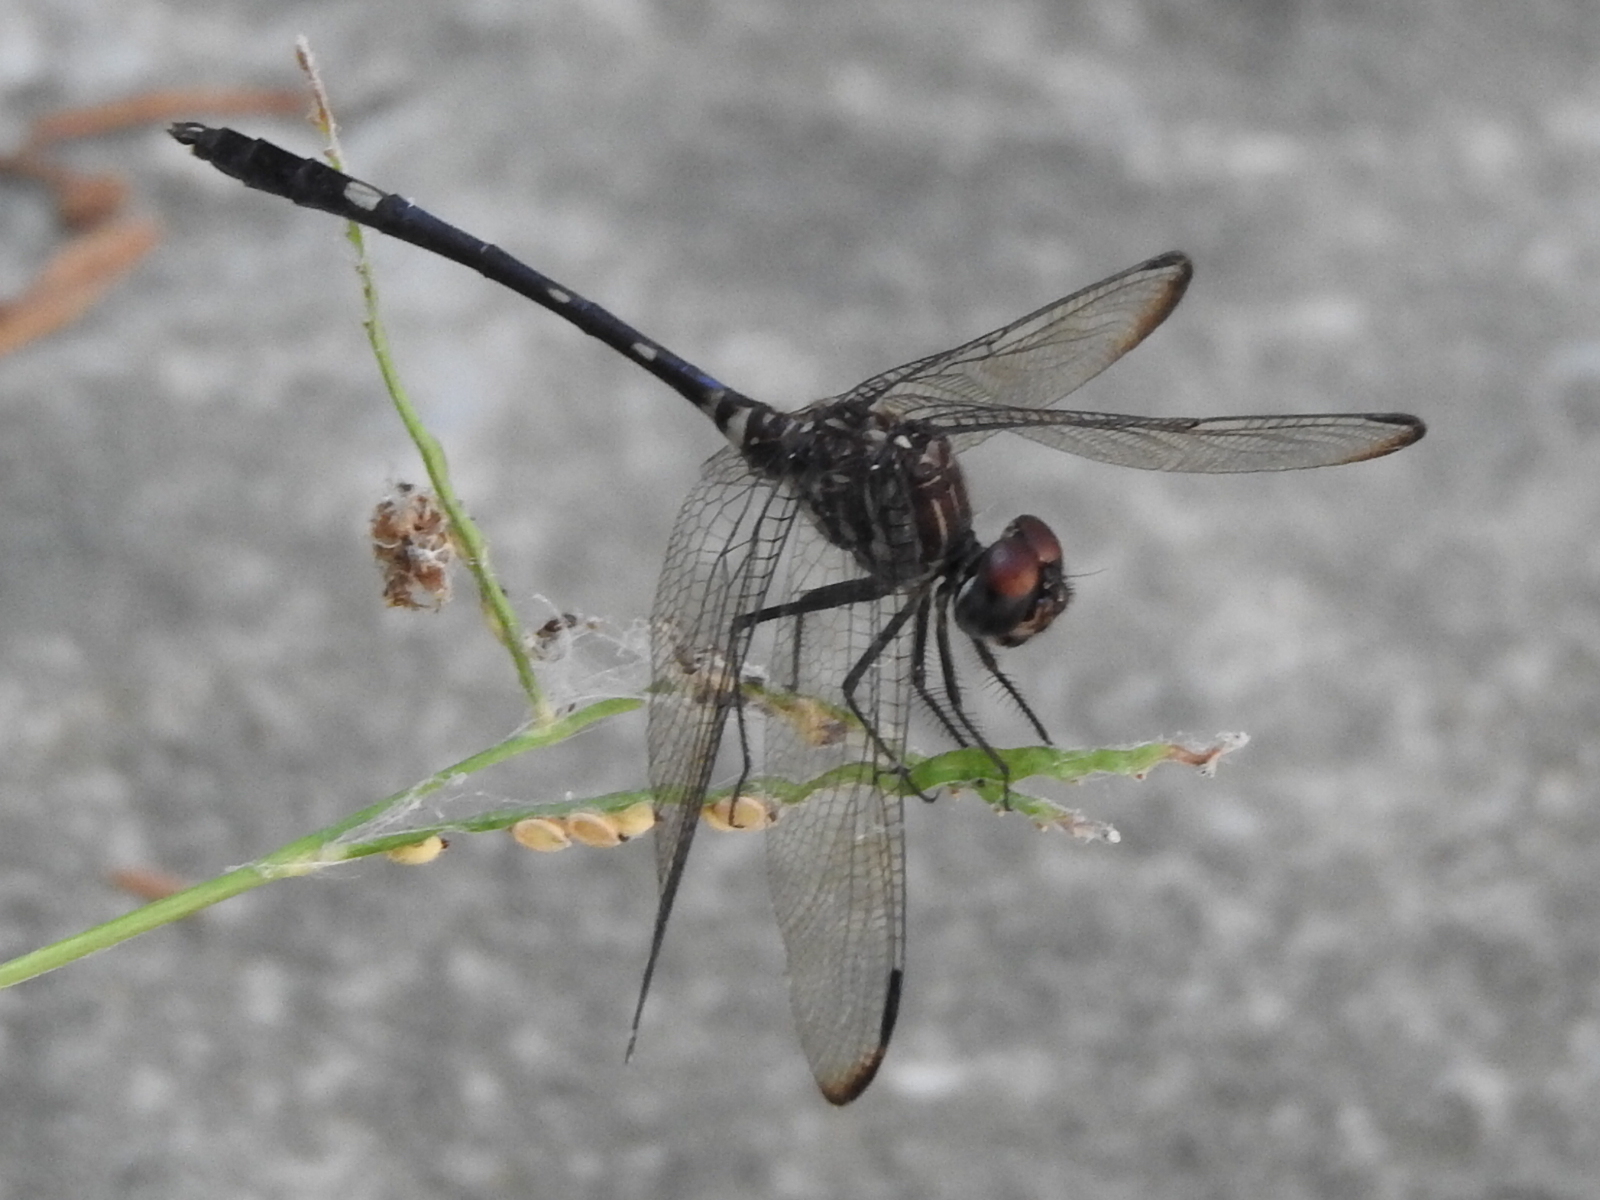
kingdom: Animalia
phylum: Arthropoda
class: Insecta
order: Odonata
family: Libellulidae
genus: Dythemis
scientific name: Dythemis velox
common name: Swift setwing
